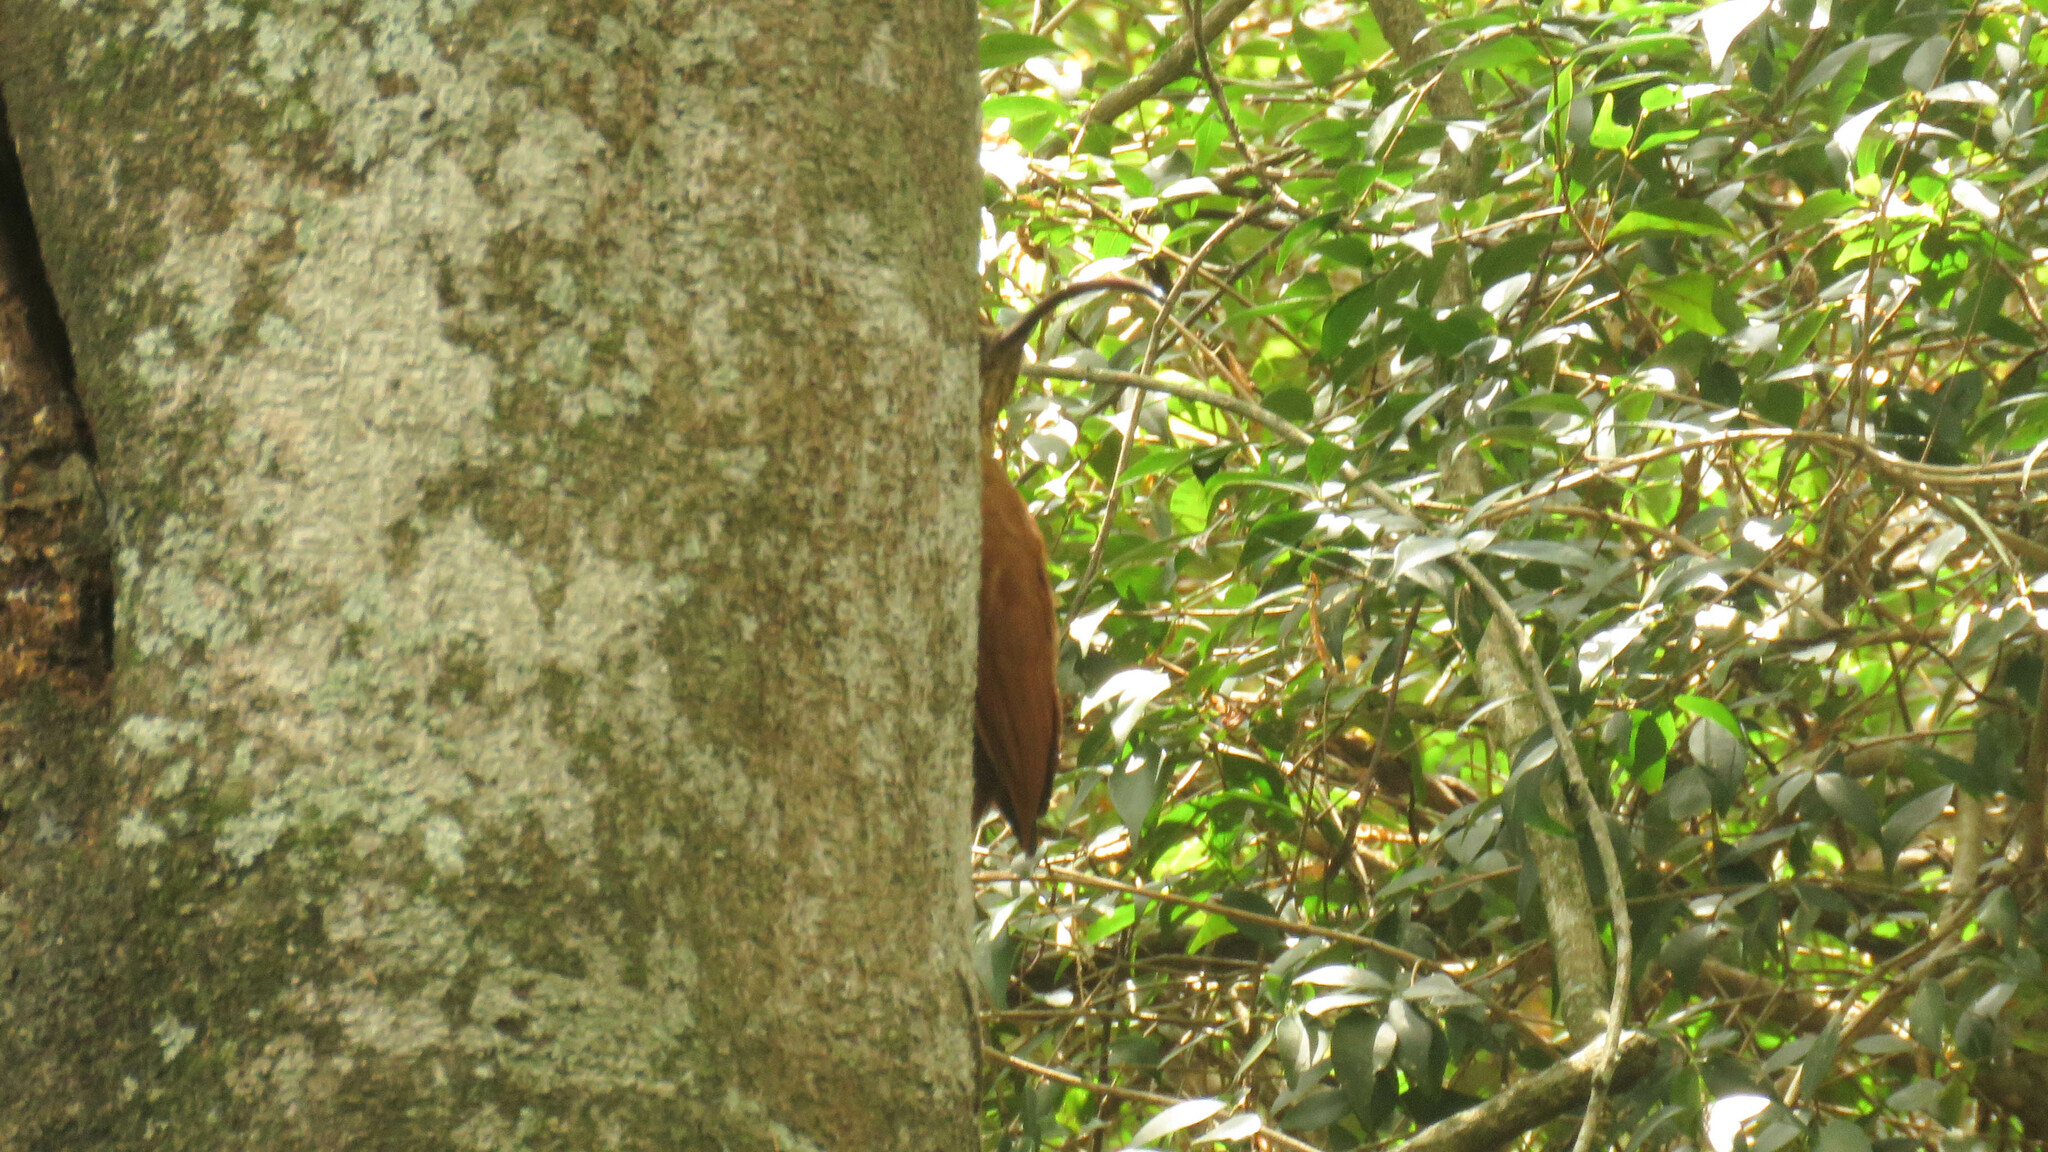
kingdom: Animalia
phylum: Chordata
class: Aves
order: Passeriformes
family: Furnariidae
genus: Campylorhamphus
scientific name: Campylorhamphus trochilirostris
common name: Red-billed scythebill
